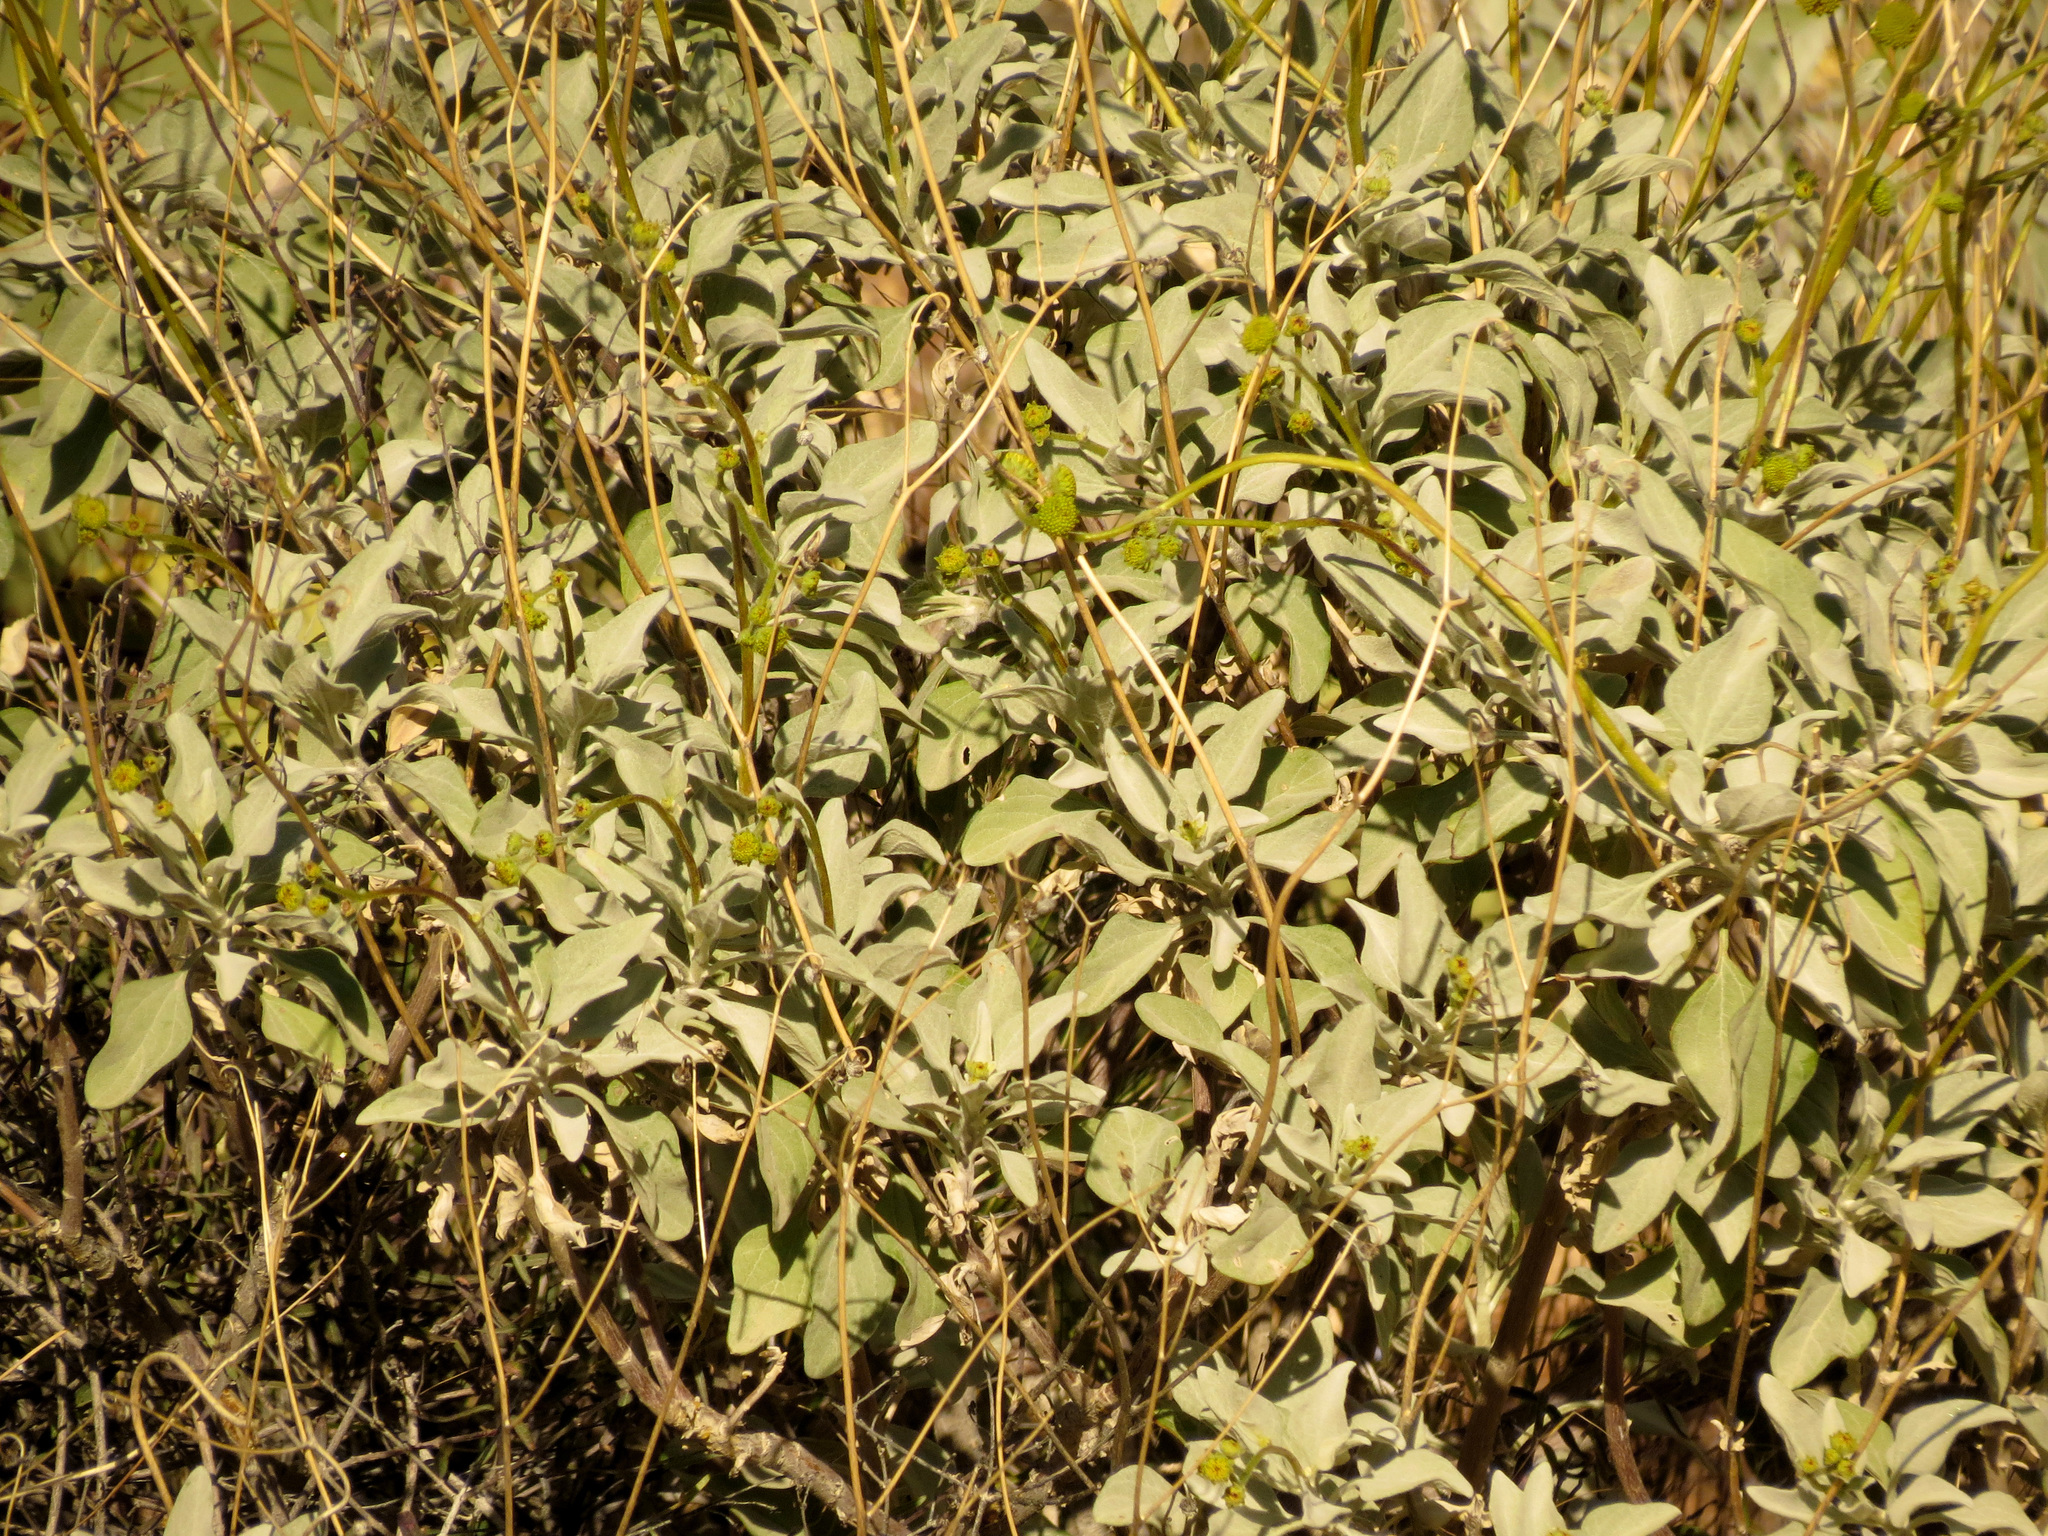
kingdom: Plantae
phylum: Tracheophyta
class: Magnoliopsida
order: Asterales
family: Asteraceae
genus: Encelia
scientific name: Encelia farinosa
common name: Brittlebush
